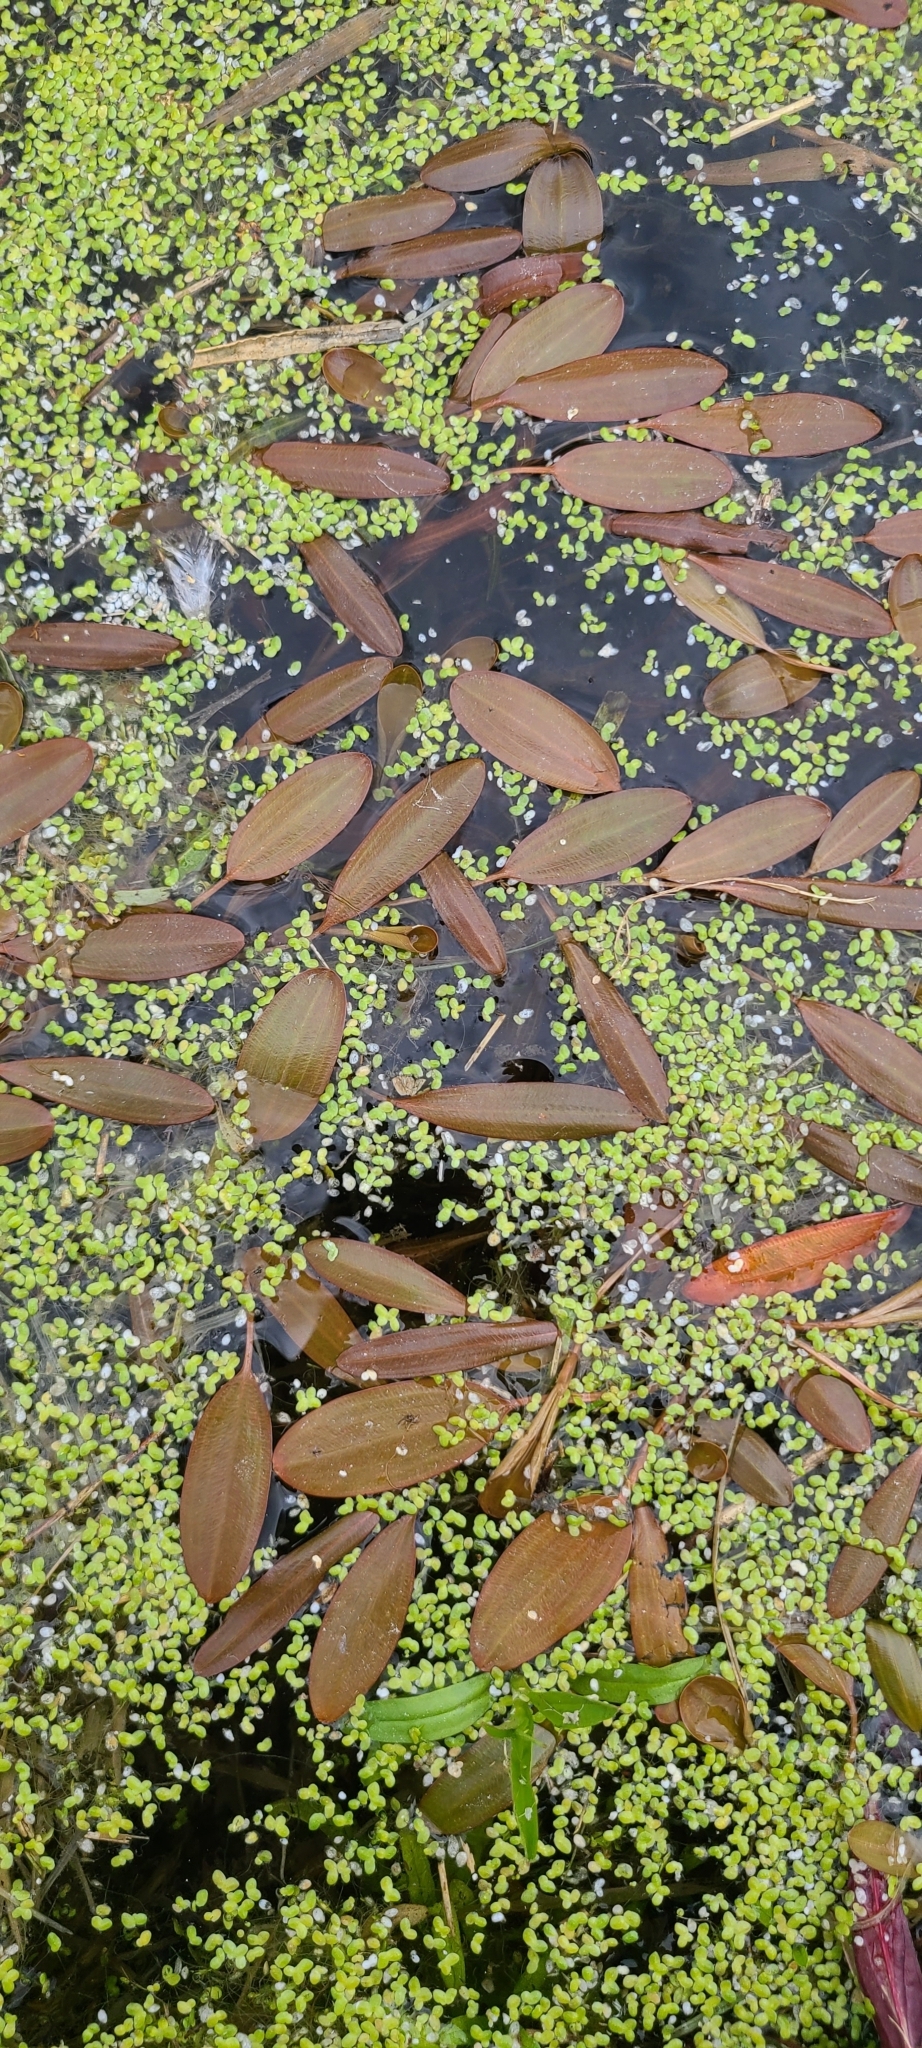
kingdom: Plantae
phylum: Tracheophyta
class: Liliopsida
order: Alismatales
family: Potamogetonaceae
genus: Potamogeton
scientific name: Potamogeton cheesemanii
